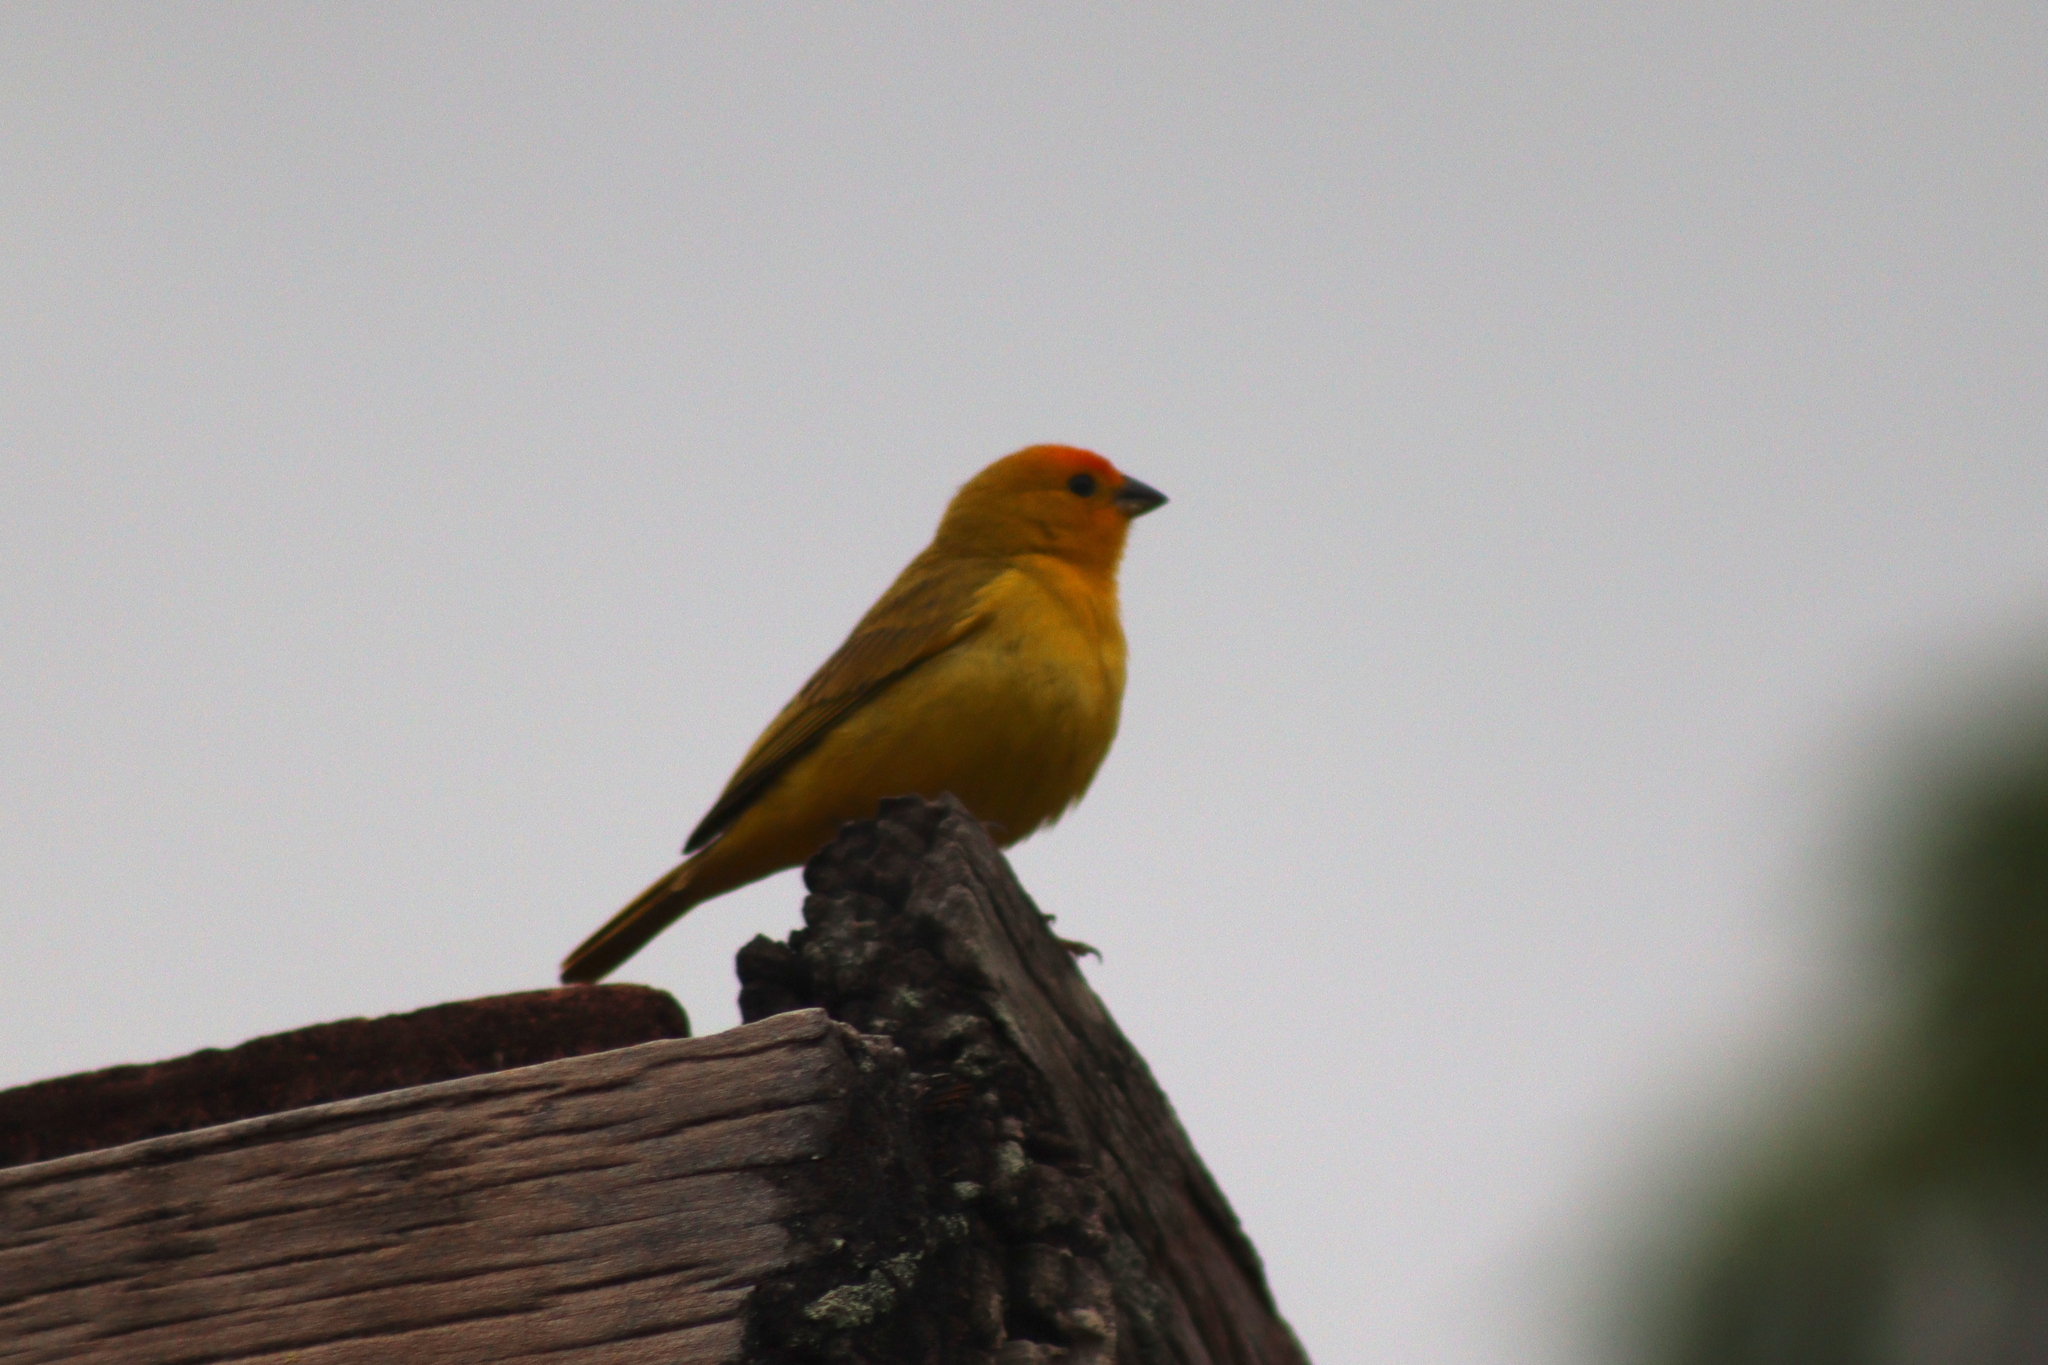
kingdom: Animalia
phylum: Chordata
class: Aves
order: Passeriformes
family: Thraupidae
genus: Sicalis
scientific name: Sicalis flaveola
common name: Saffron finch
